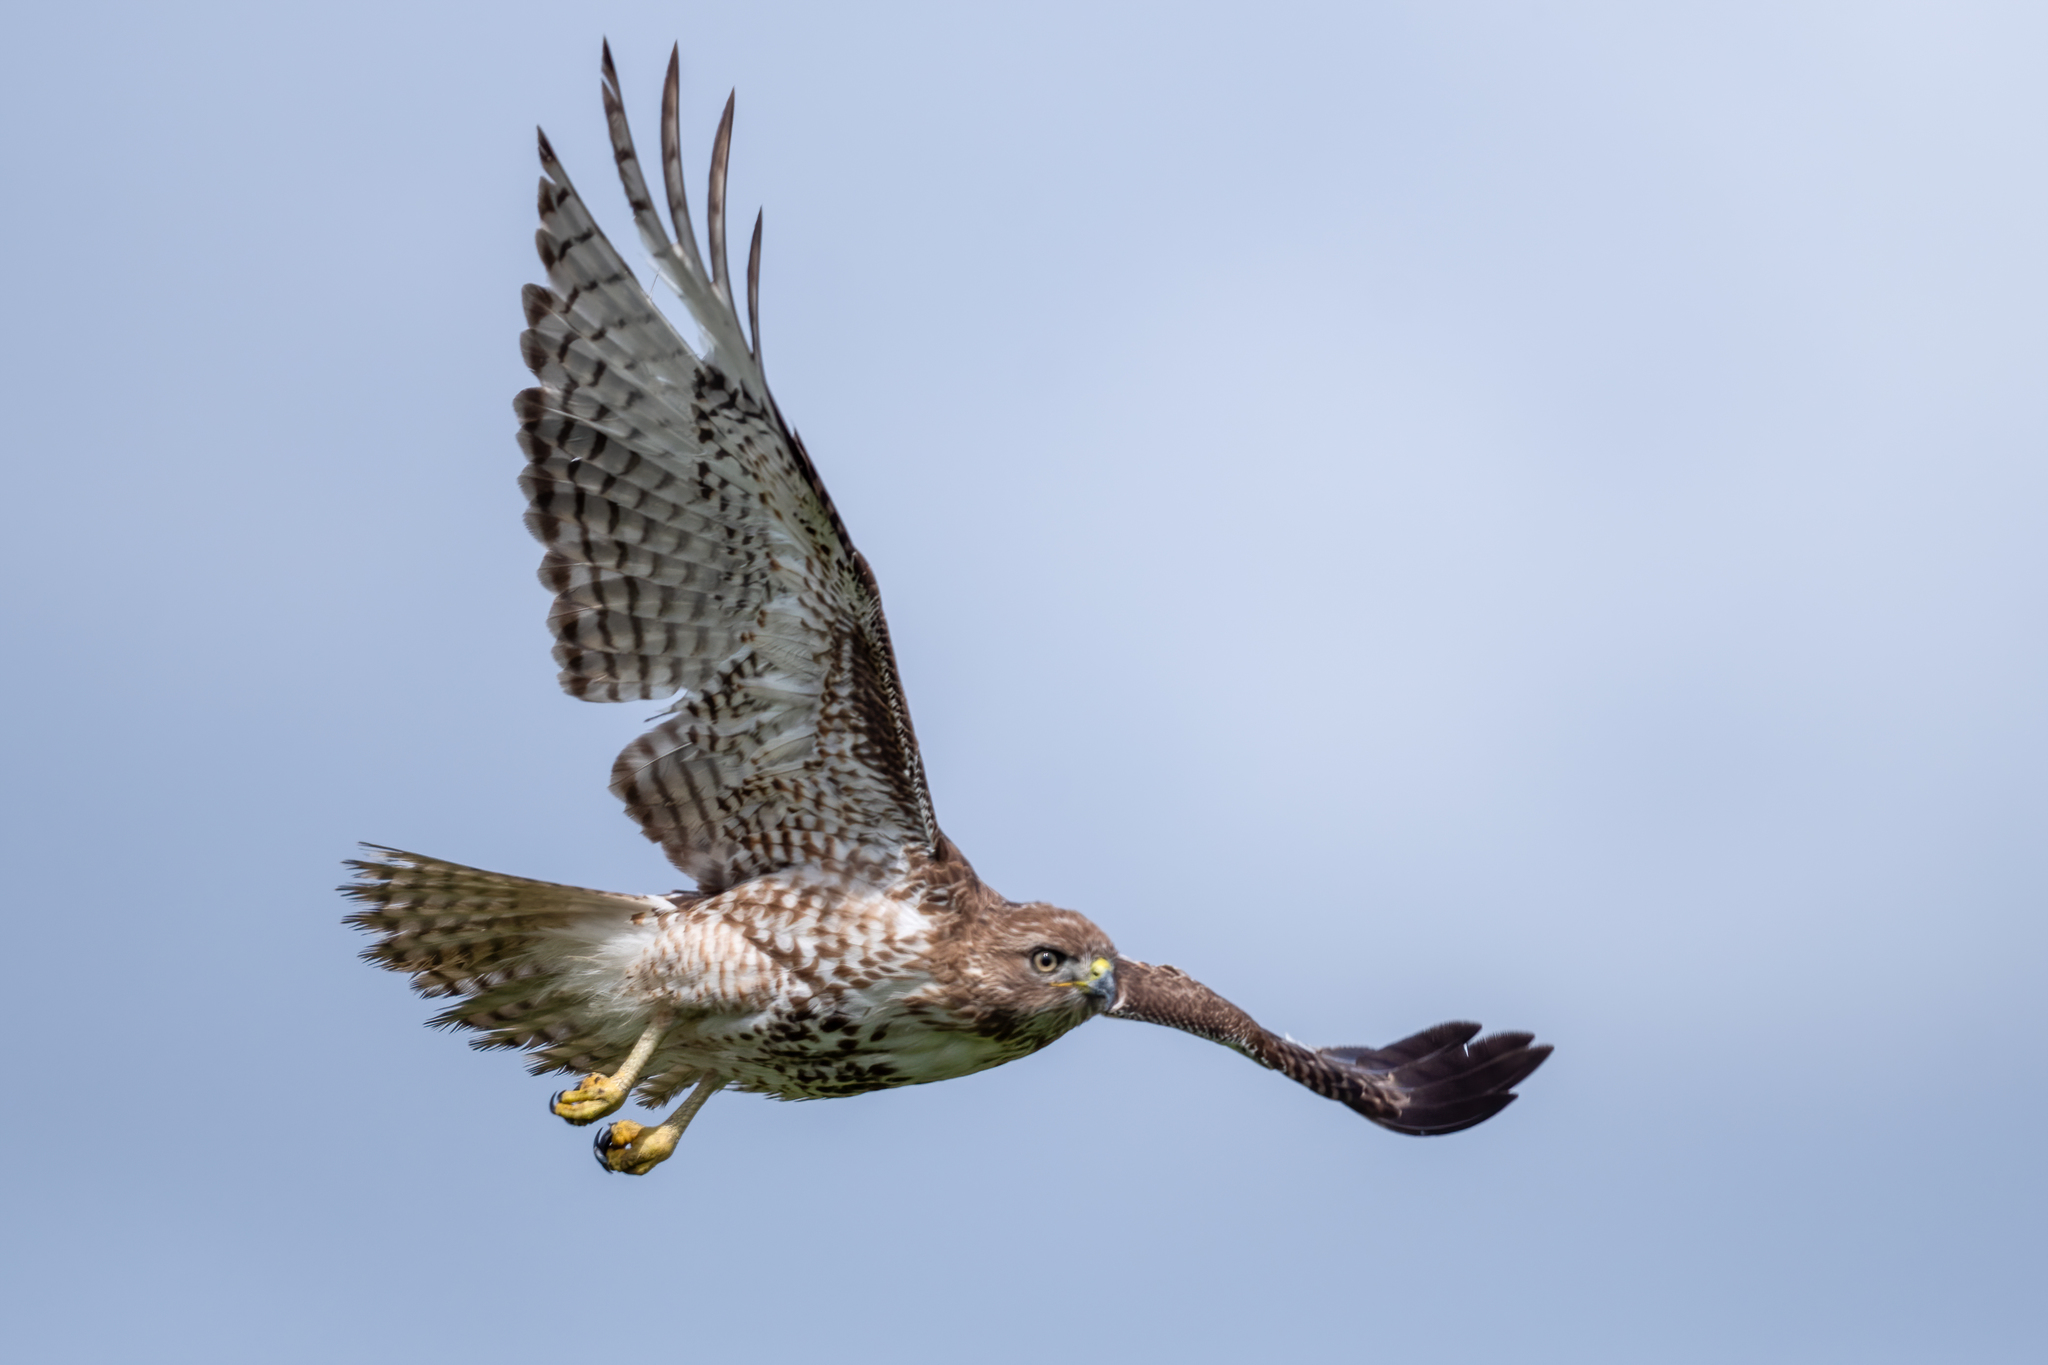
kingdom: Animalia
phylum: Chordata
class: Aves
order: Accipitriformes
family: Accipitridae
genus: Buteo
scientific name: Buteo jamaicensis
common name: Red-tailed hawk
